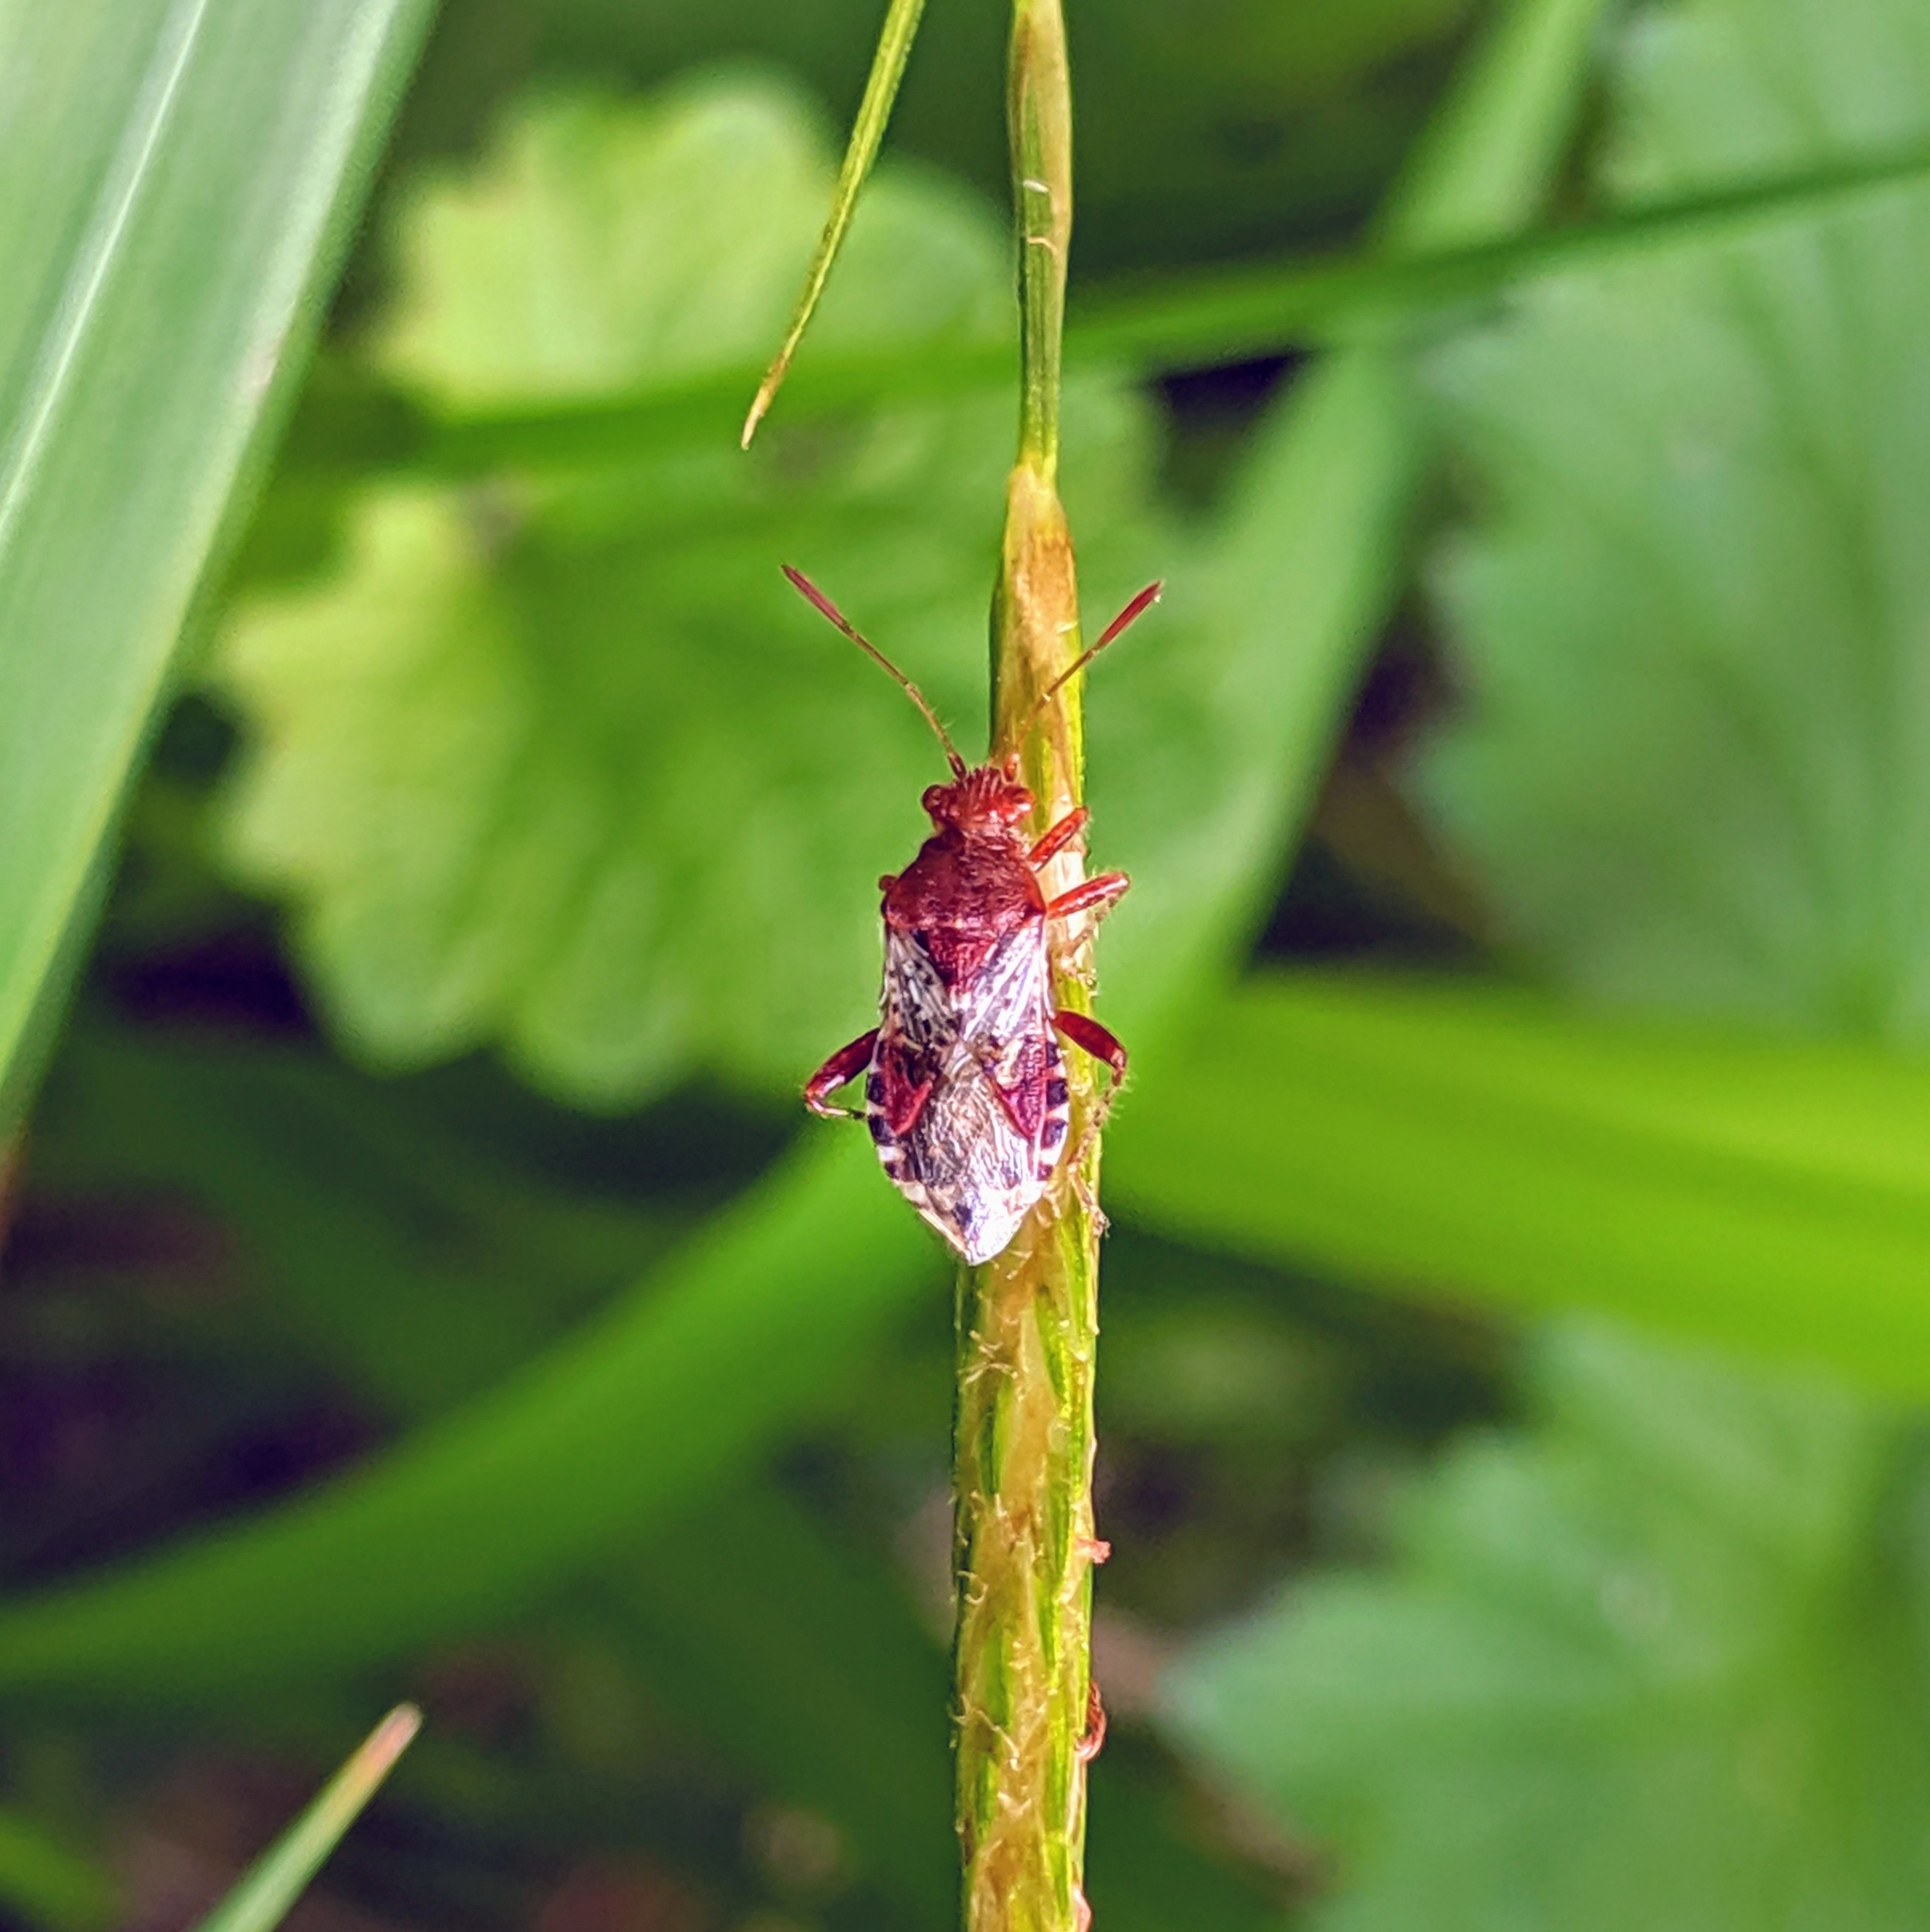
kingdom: Animalia
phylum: Arthropoda
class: Insecta
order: Hemiptera
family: Rhopalidae
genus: Rhopalus
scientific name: Rhopalus subrufus
